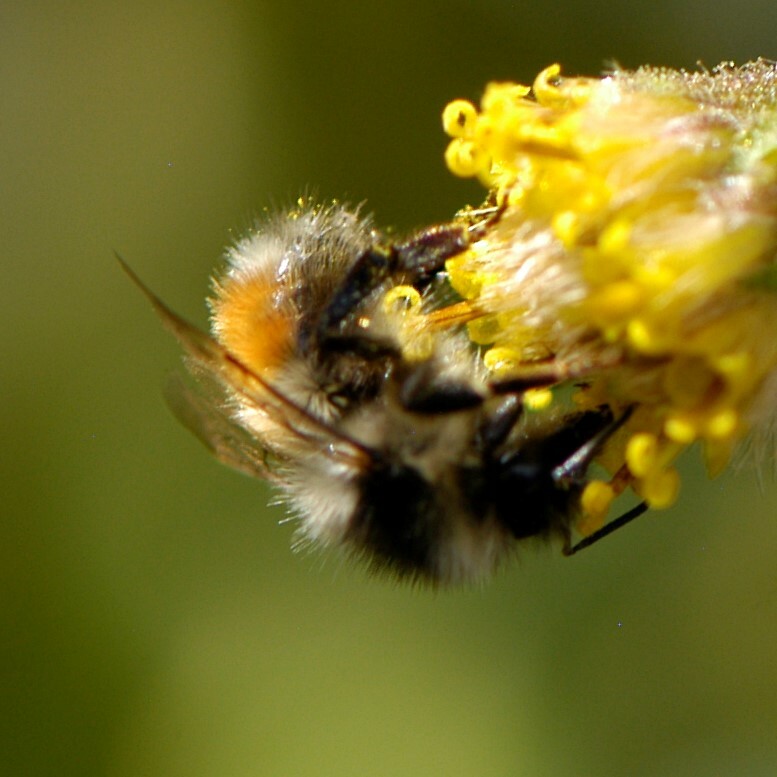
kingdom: Animalia
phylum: Arthropoda
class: Insecta
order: Hymenoptera
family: Apidae
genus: Bombus
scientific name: Bombus sylvicola
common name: Forest bumble bee
